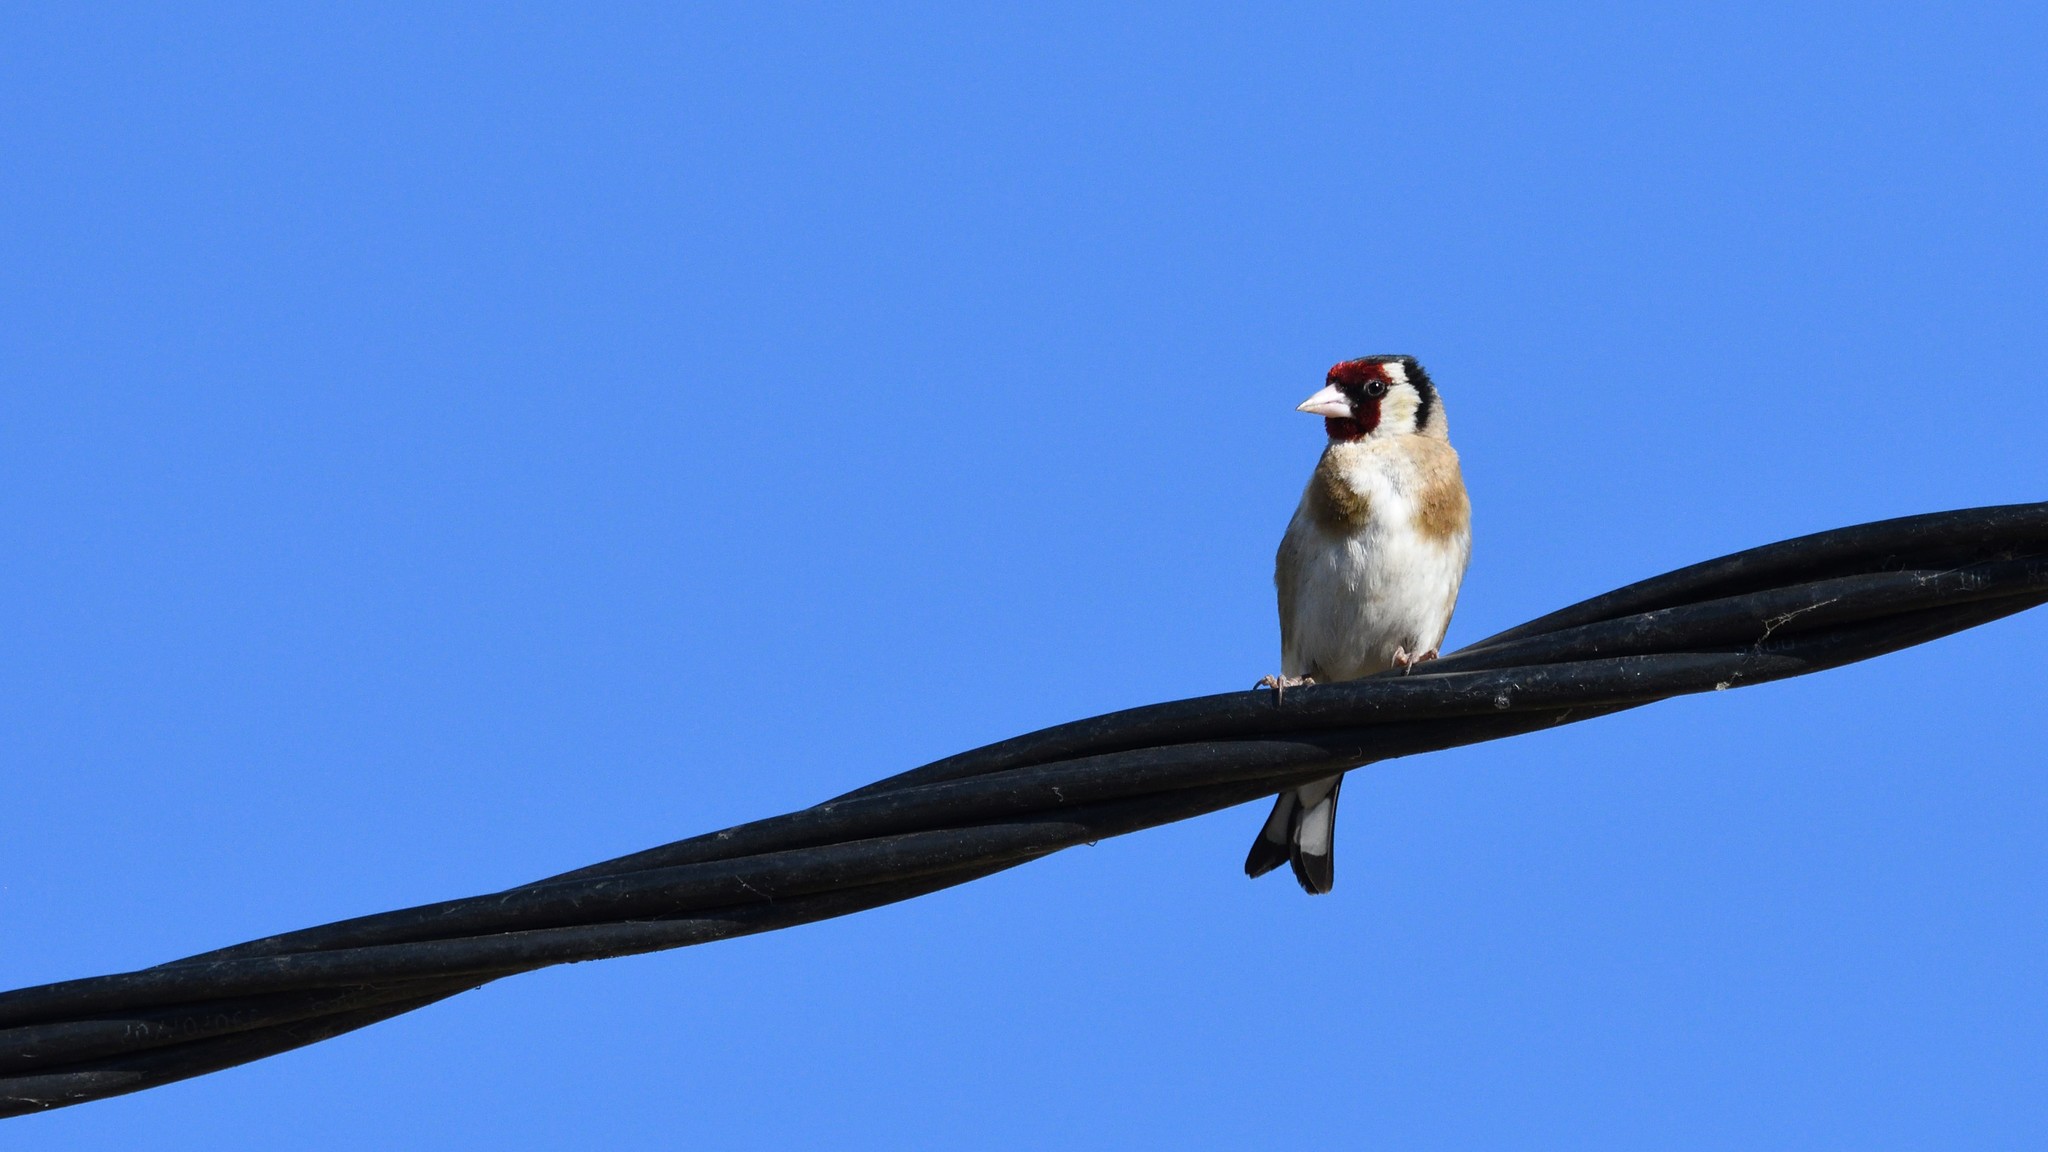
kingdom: Animalia
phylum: Chordata
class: Aves
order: Passeriformes
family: Fringillidae
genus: Carduelis
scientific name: Carduelis carduelis
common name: European goldfinch
